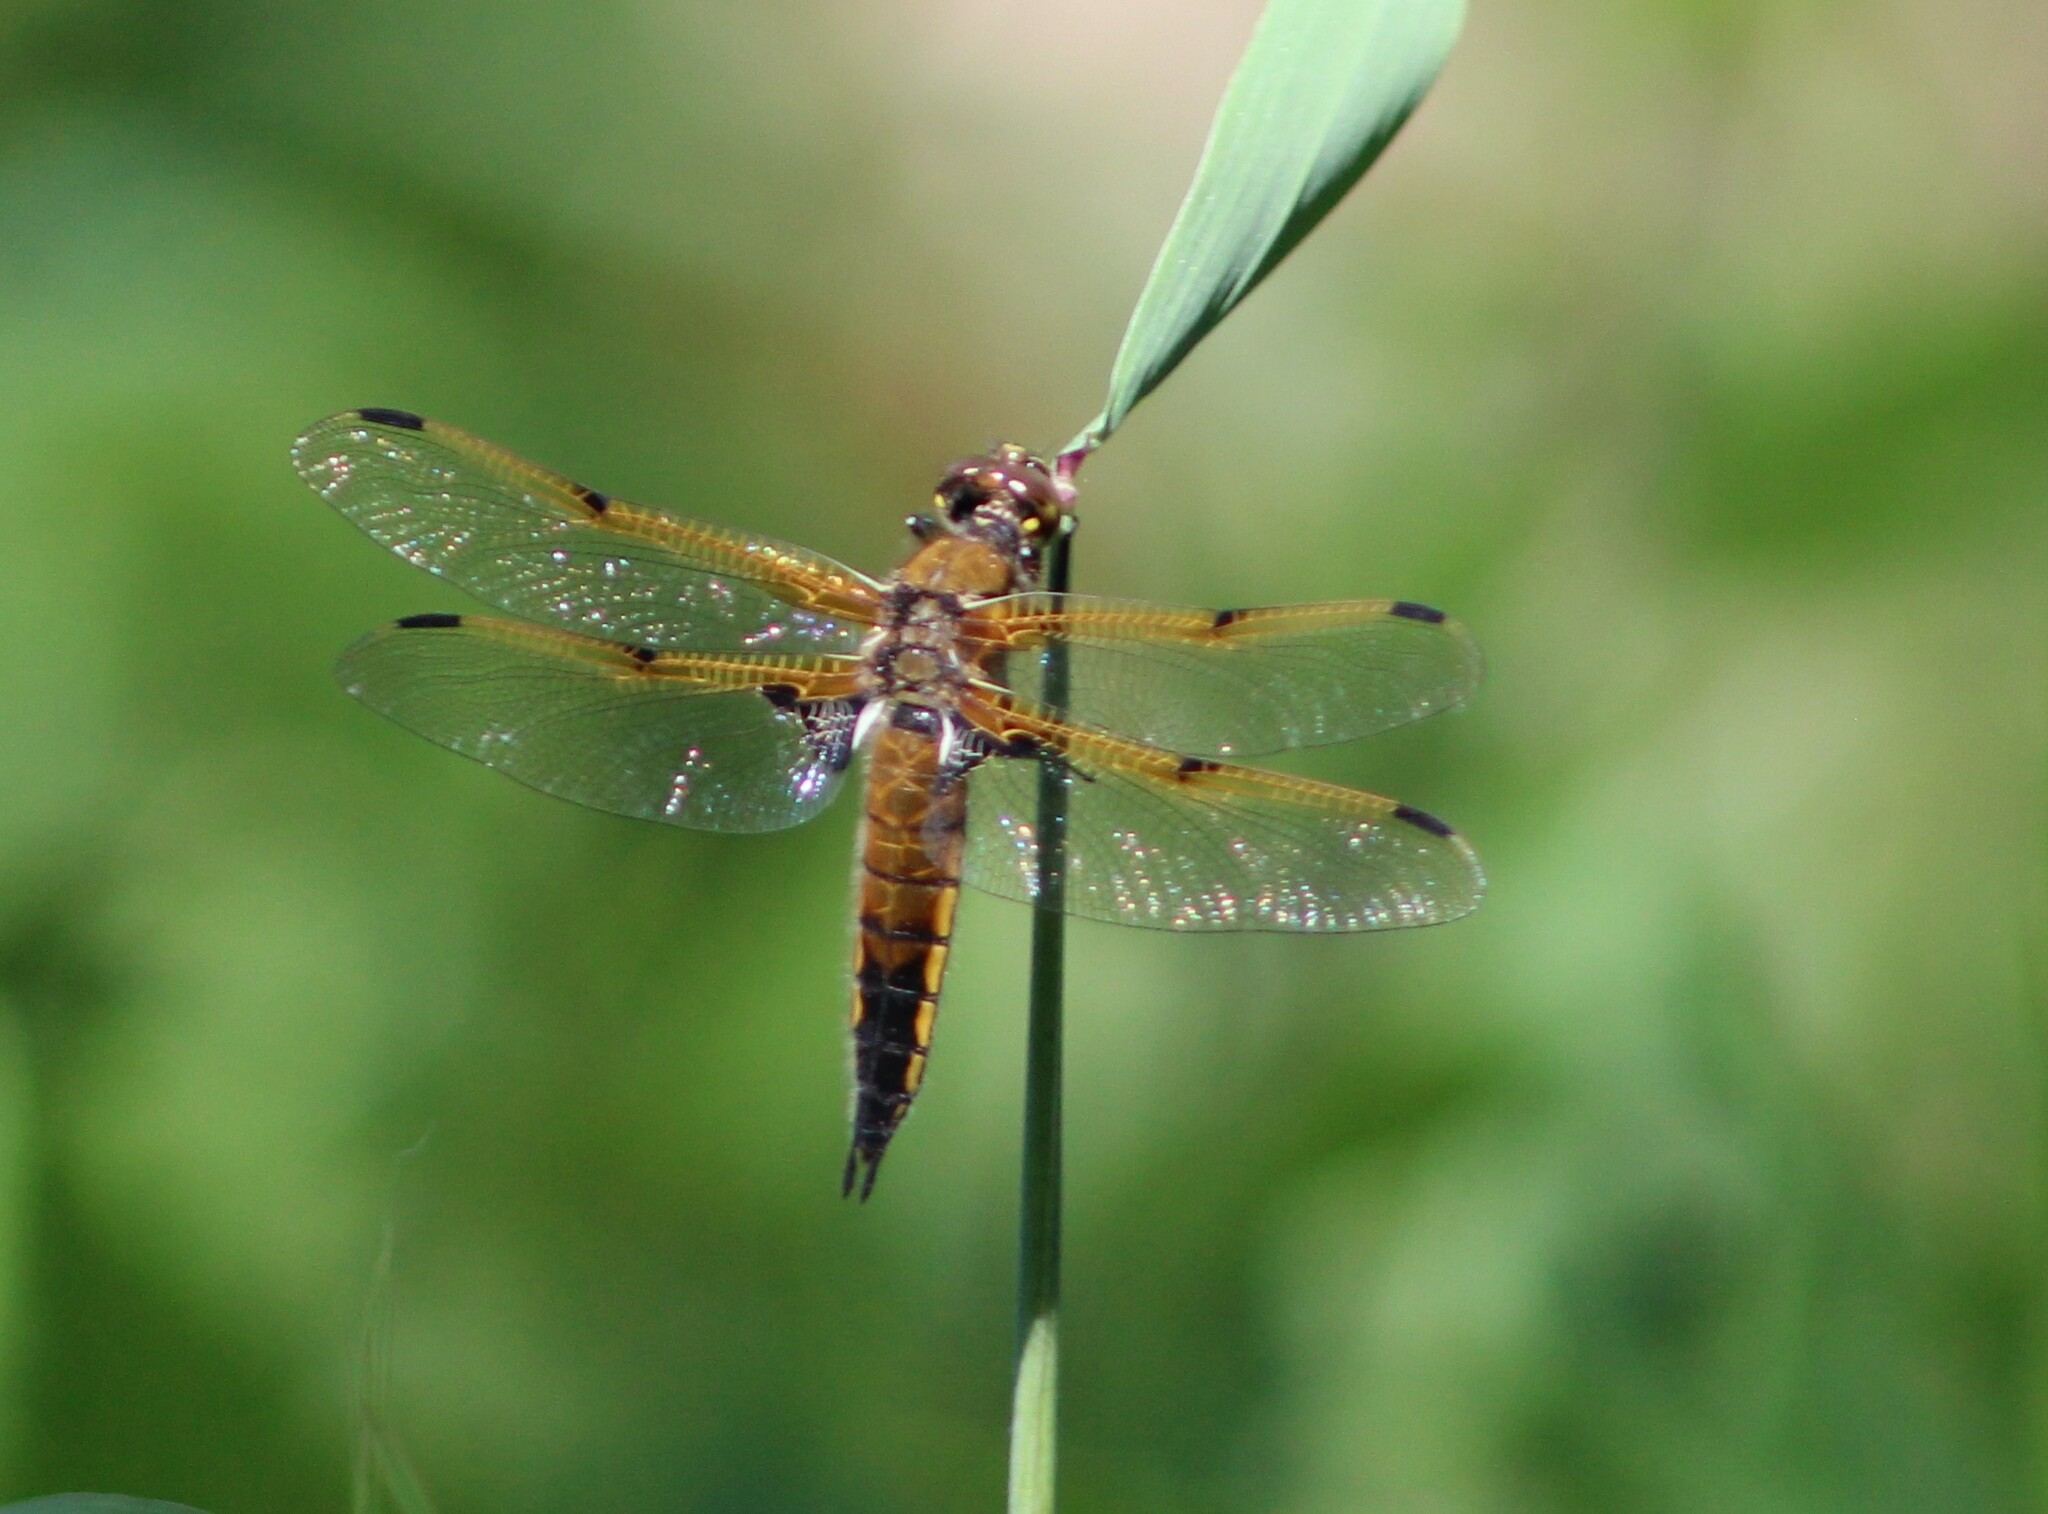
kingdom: Animalia
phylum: Arthropoda
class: Insecta
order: Odonata
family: Libellulidae
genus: Libellula
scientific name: Libellula quadrimaculata
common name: Four-spotted chaser
